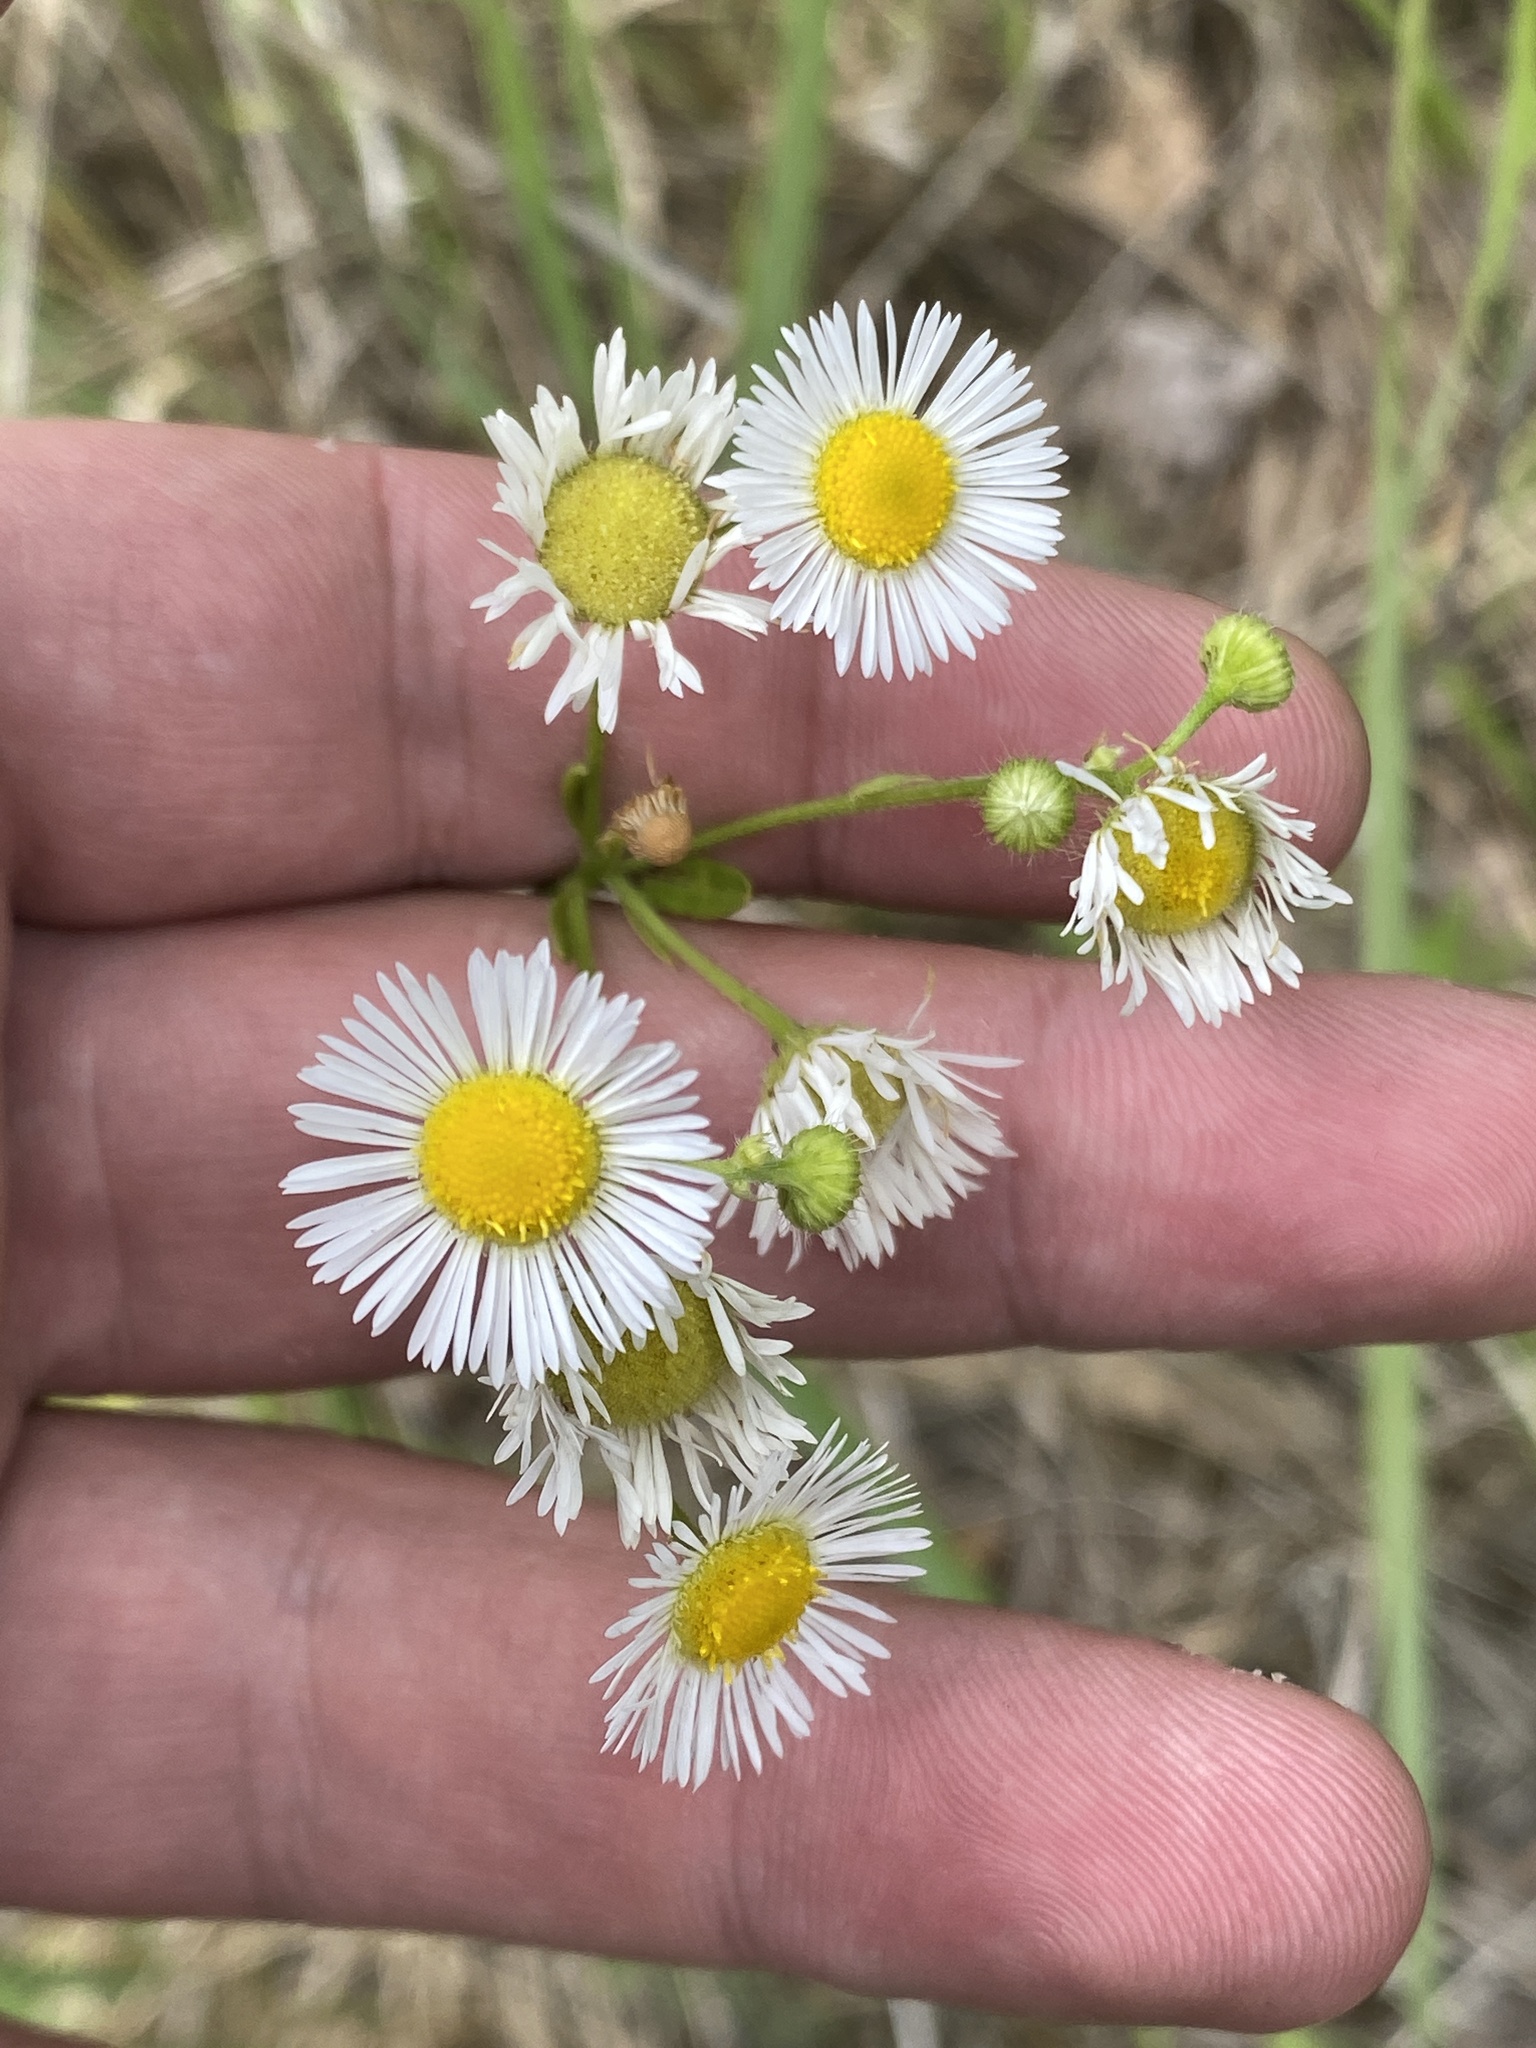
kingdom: Plantae
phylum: Tracheophyta
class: Magnoliopsida
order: Asterales
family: Asteraceae
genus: Erigeron
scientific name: Erigeron annuus
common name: Tall fleabane
